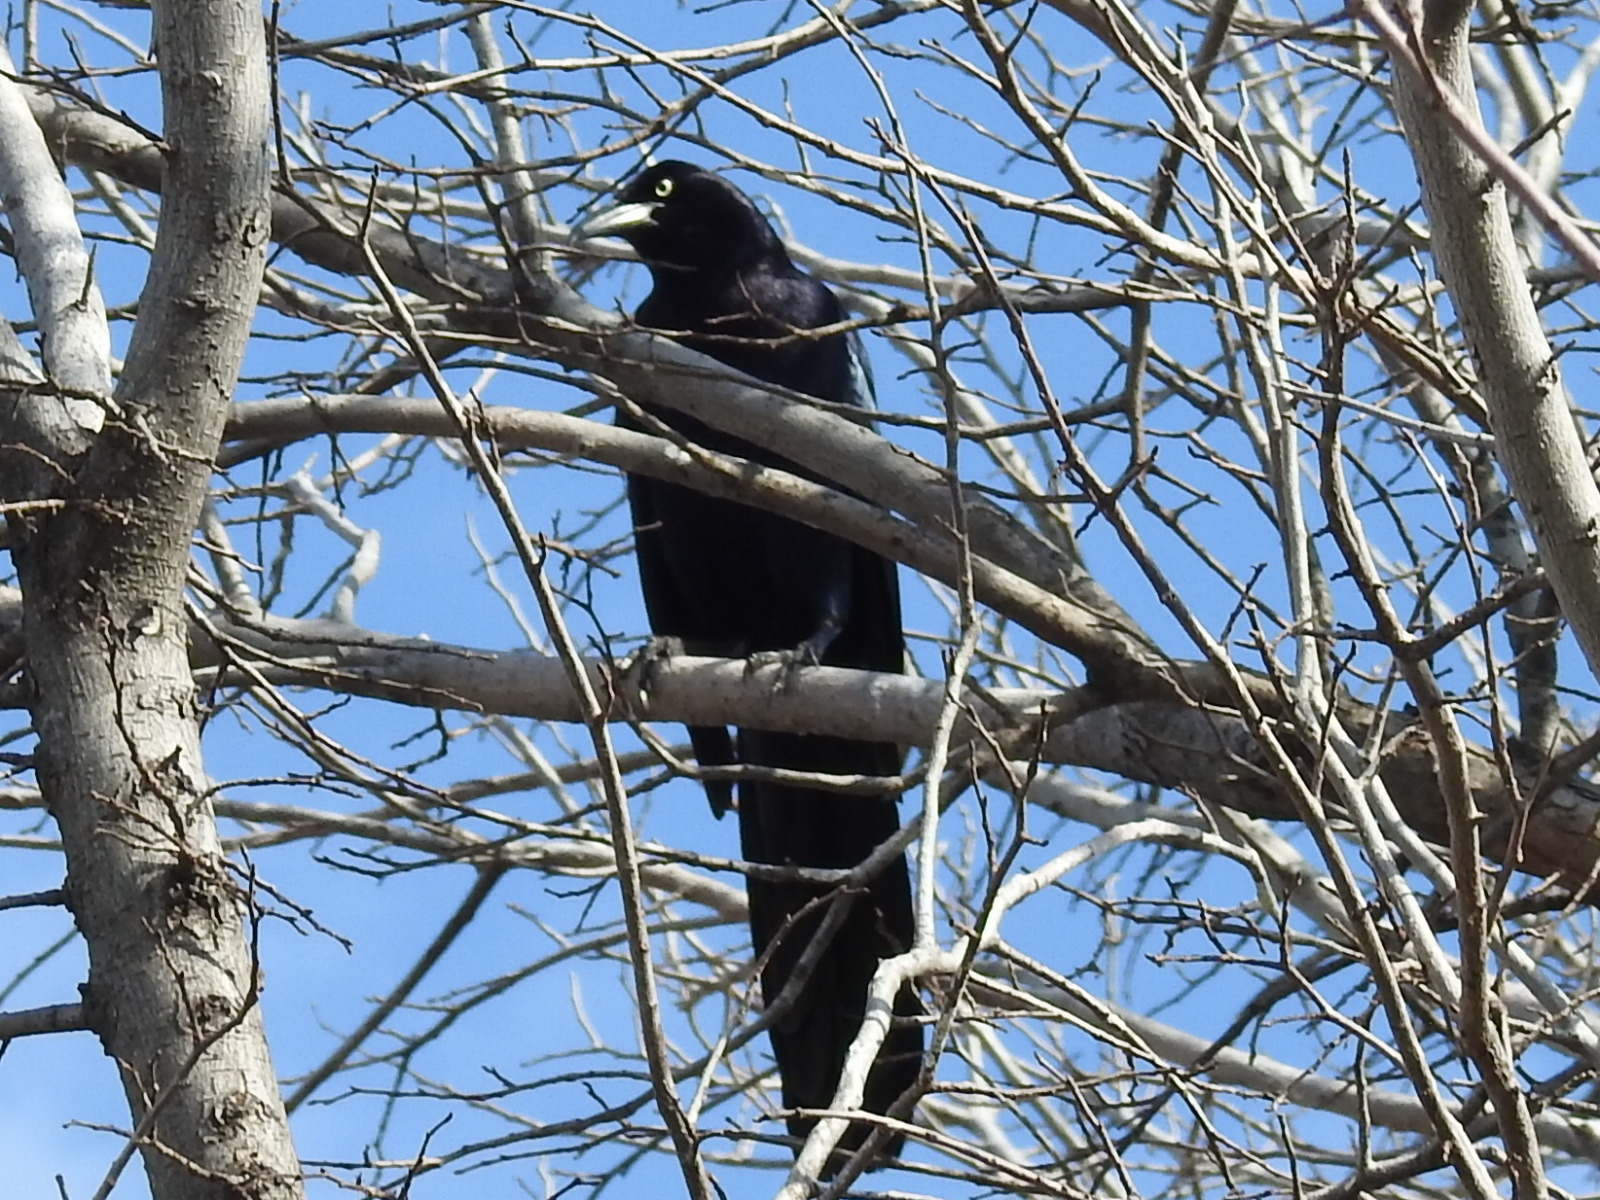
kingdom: Animalia
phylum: Chordata
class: Aves
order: Passeriformes
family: Icteridae
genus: Quiscalus
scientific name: Quiscalus mexicanus
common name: Great-tailed grackle
